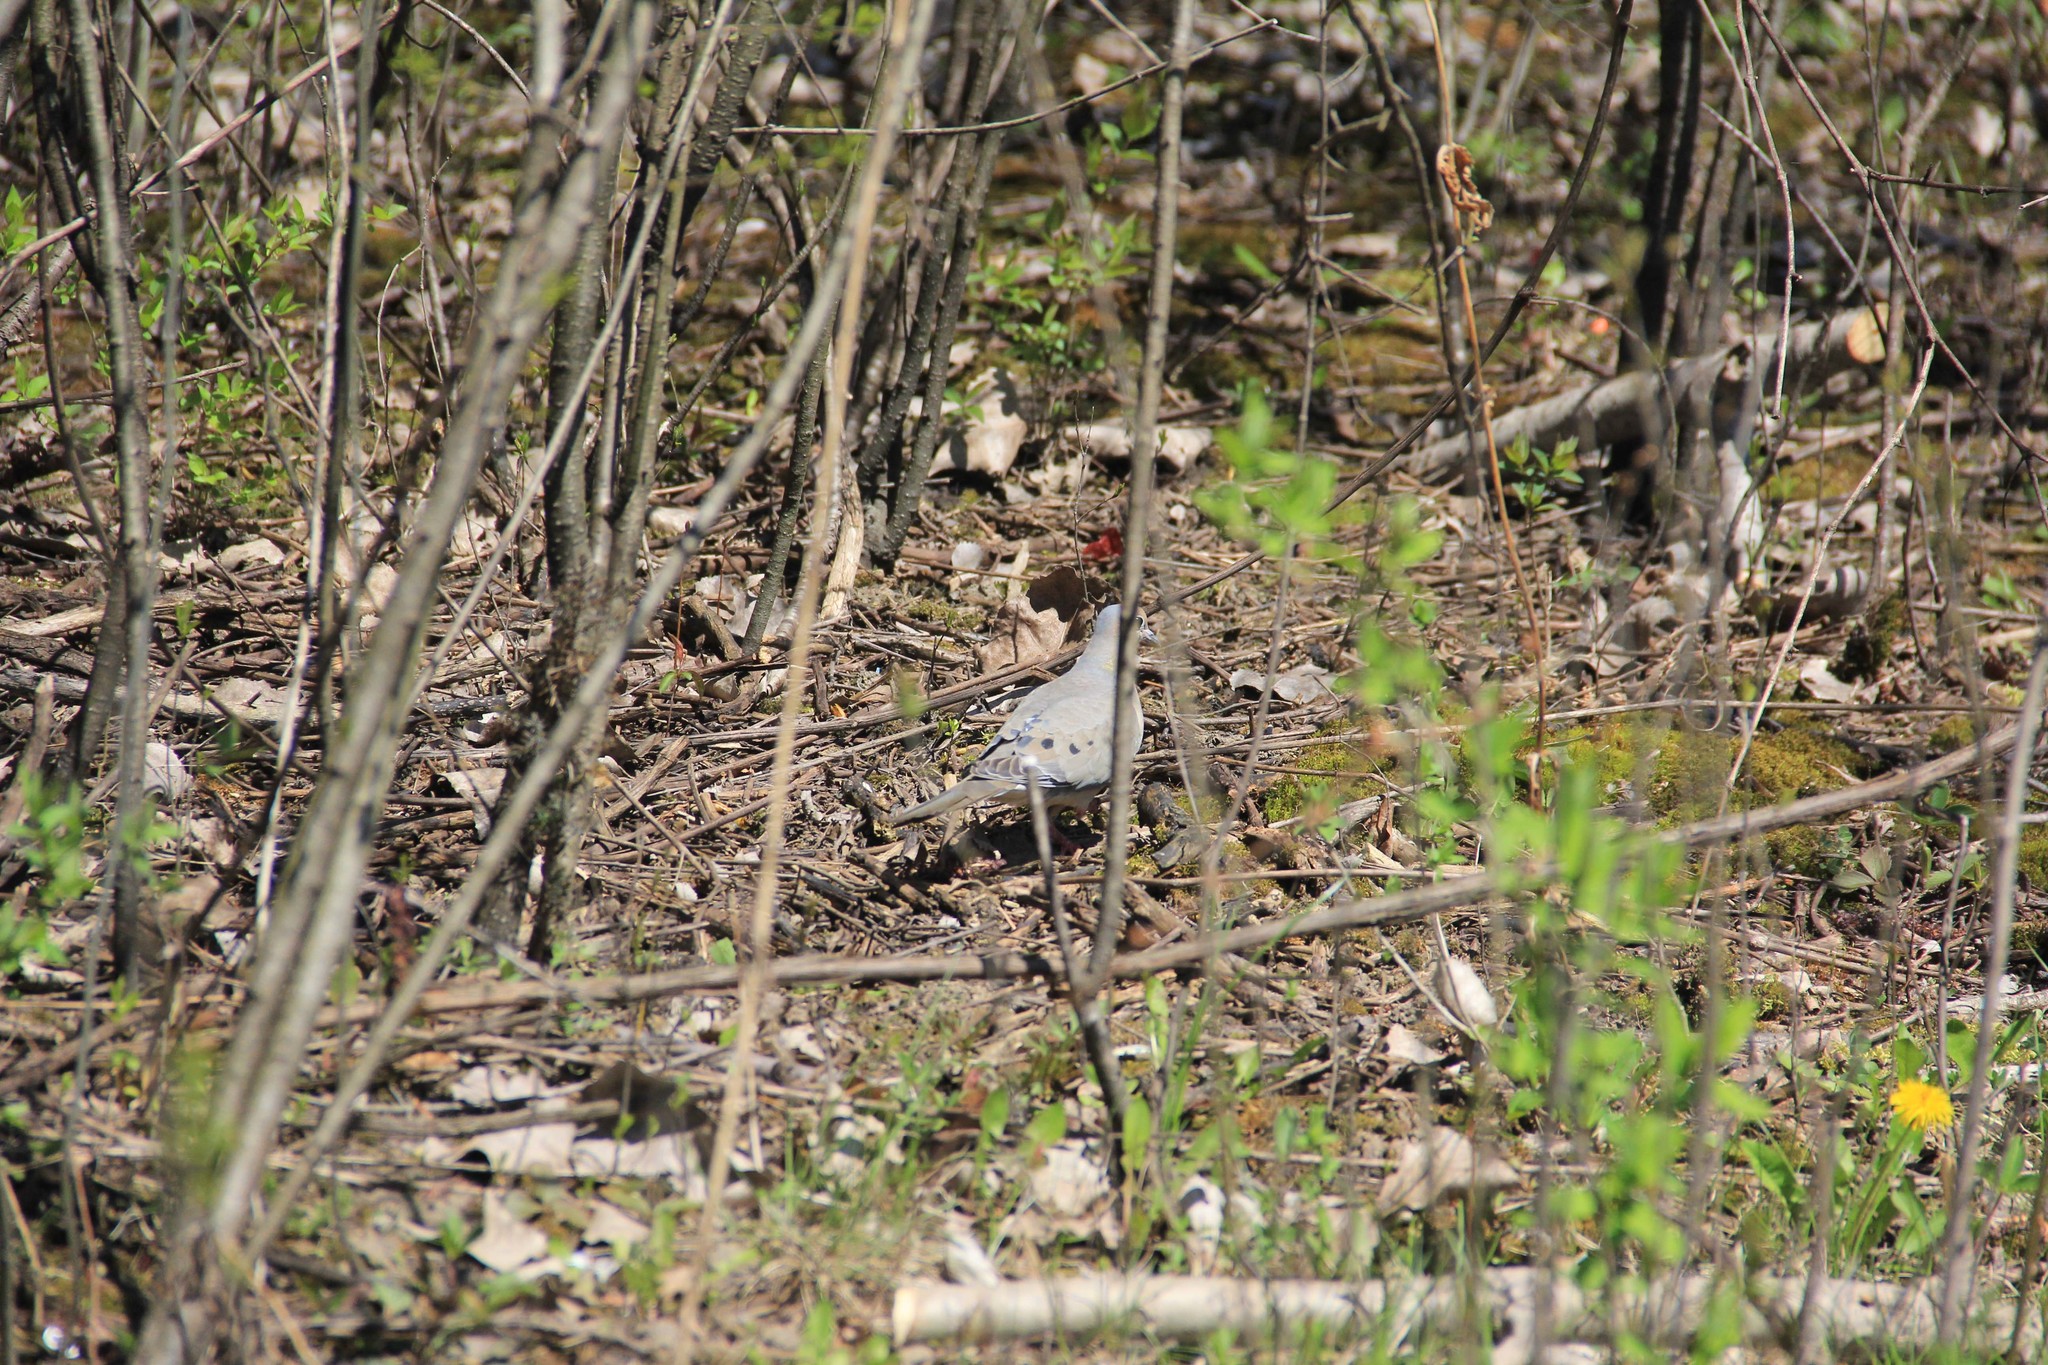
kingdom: Animalia
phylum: Chordata
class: Aves
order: Columbiformes
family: Columbidae
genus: Zenaida
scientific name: Zenaida macroura
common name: Mourning dove
